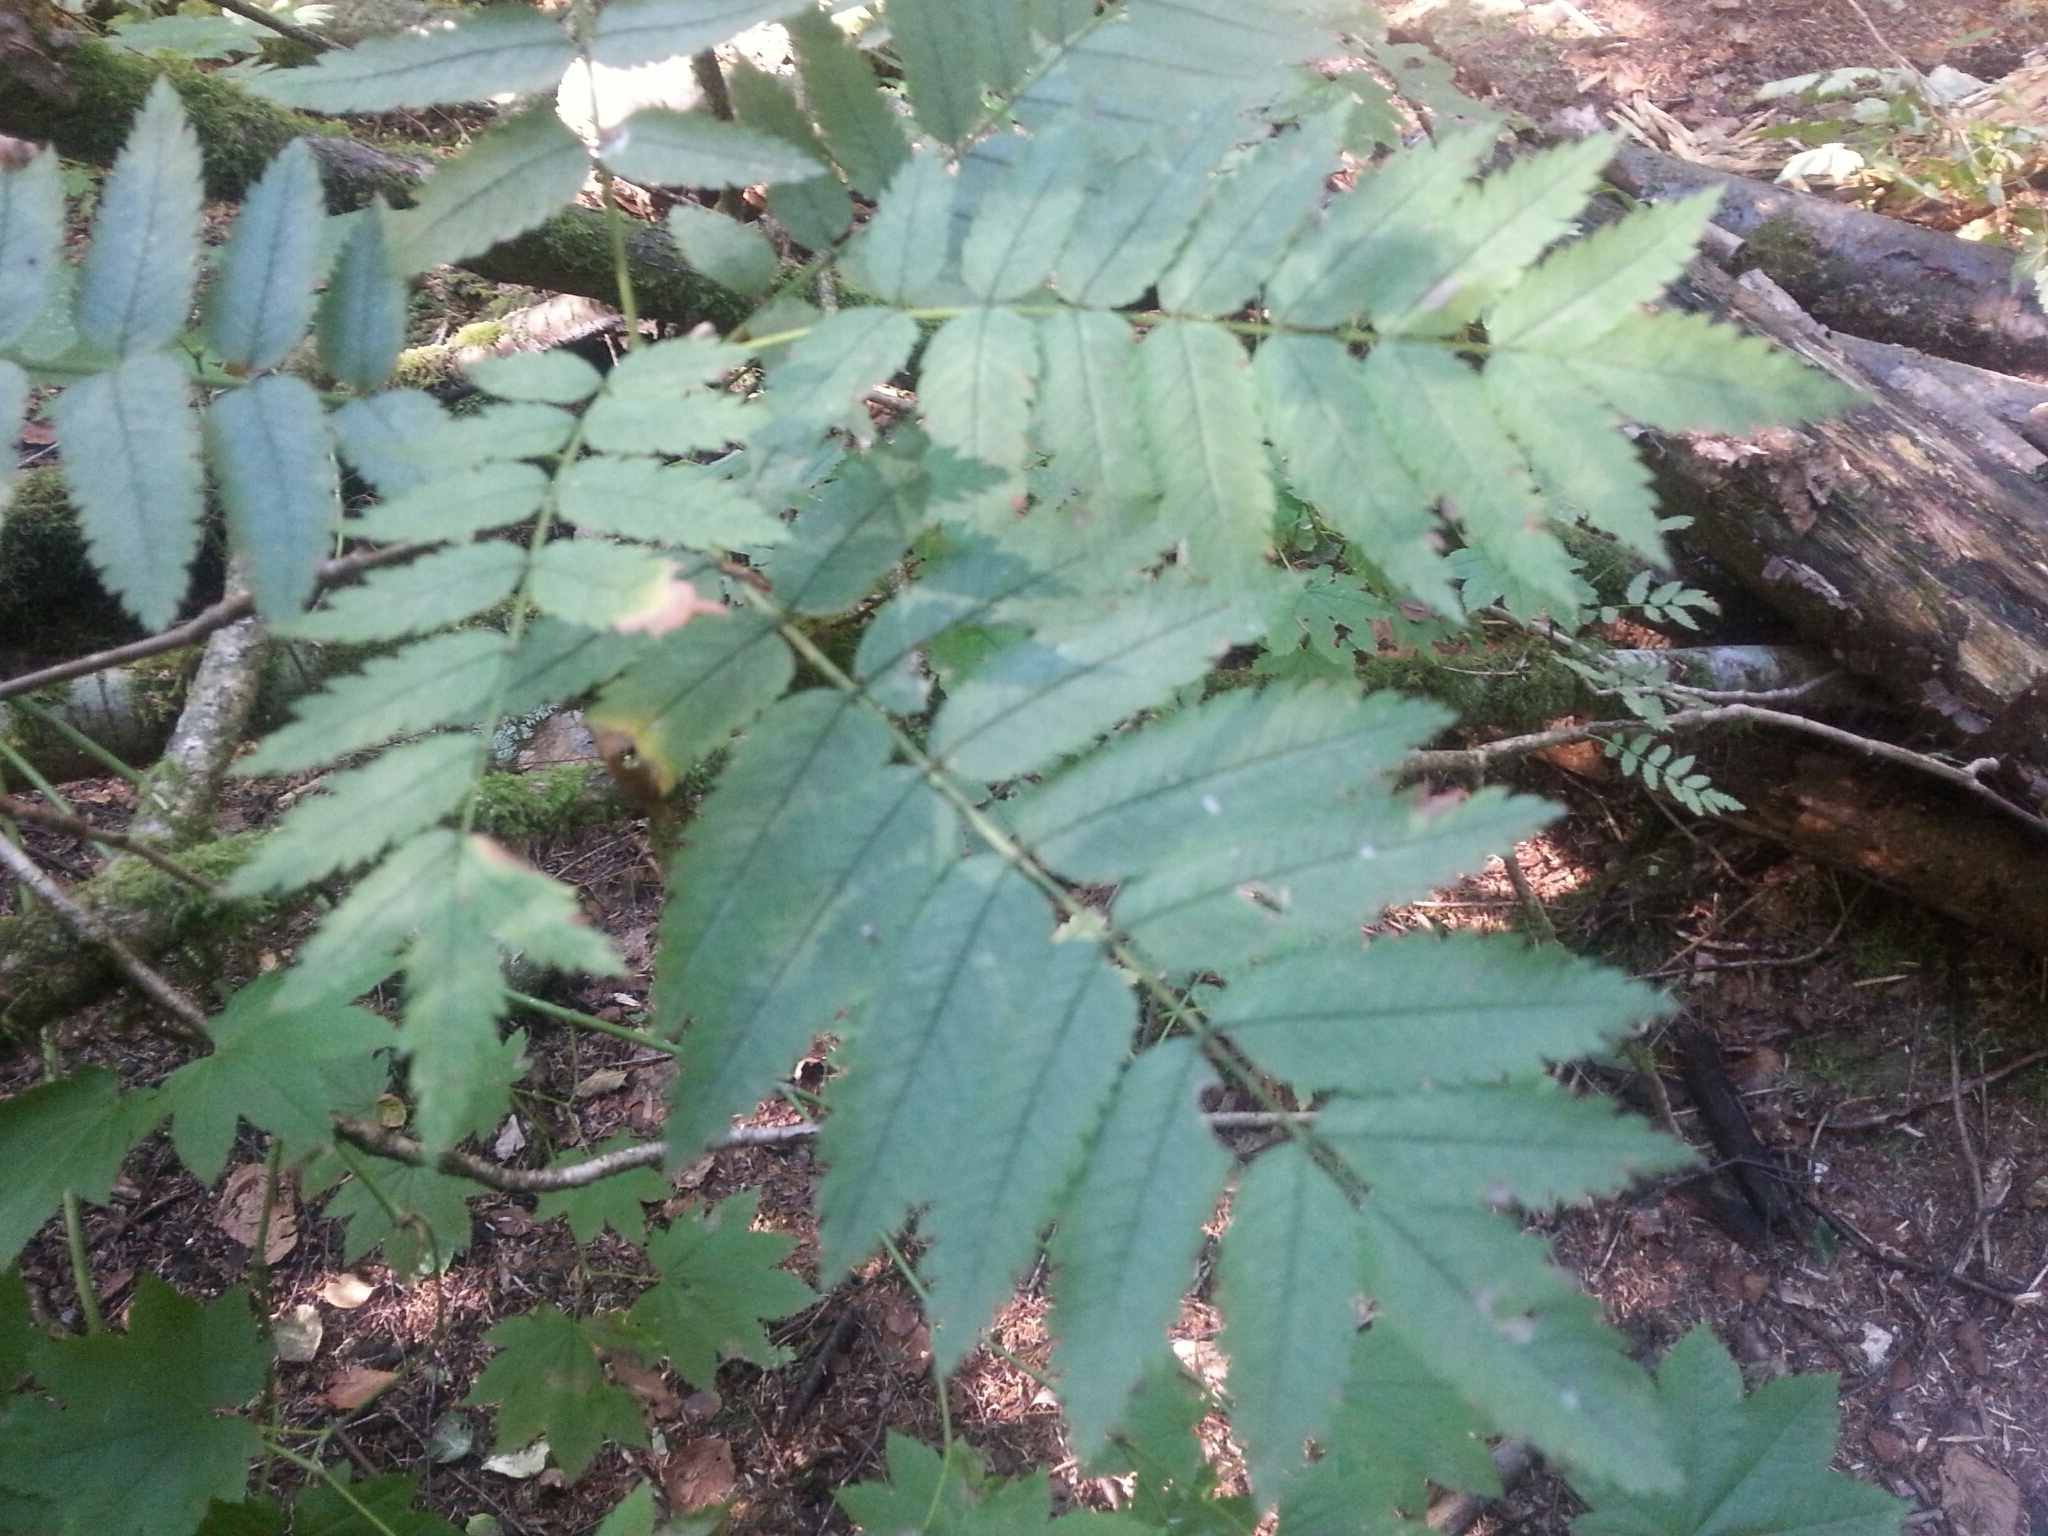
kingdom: Plantae
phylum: Tracheophyta
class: Magnoliopsida
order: Rosales
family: Rosaceae
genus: Sorbus
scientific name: Sorbus aucuparia
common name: Rowan
